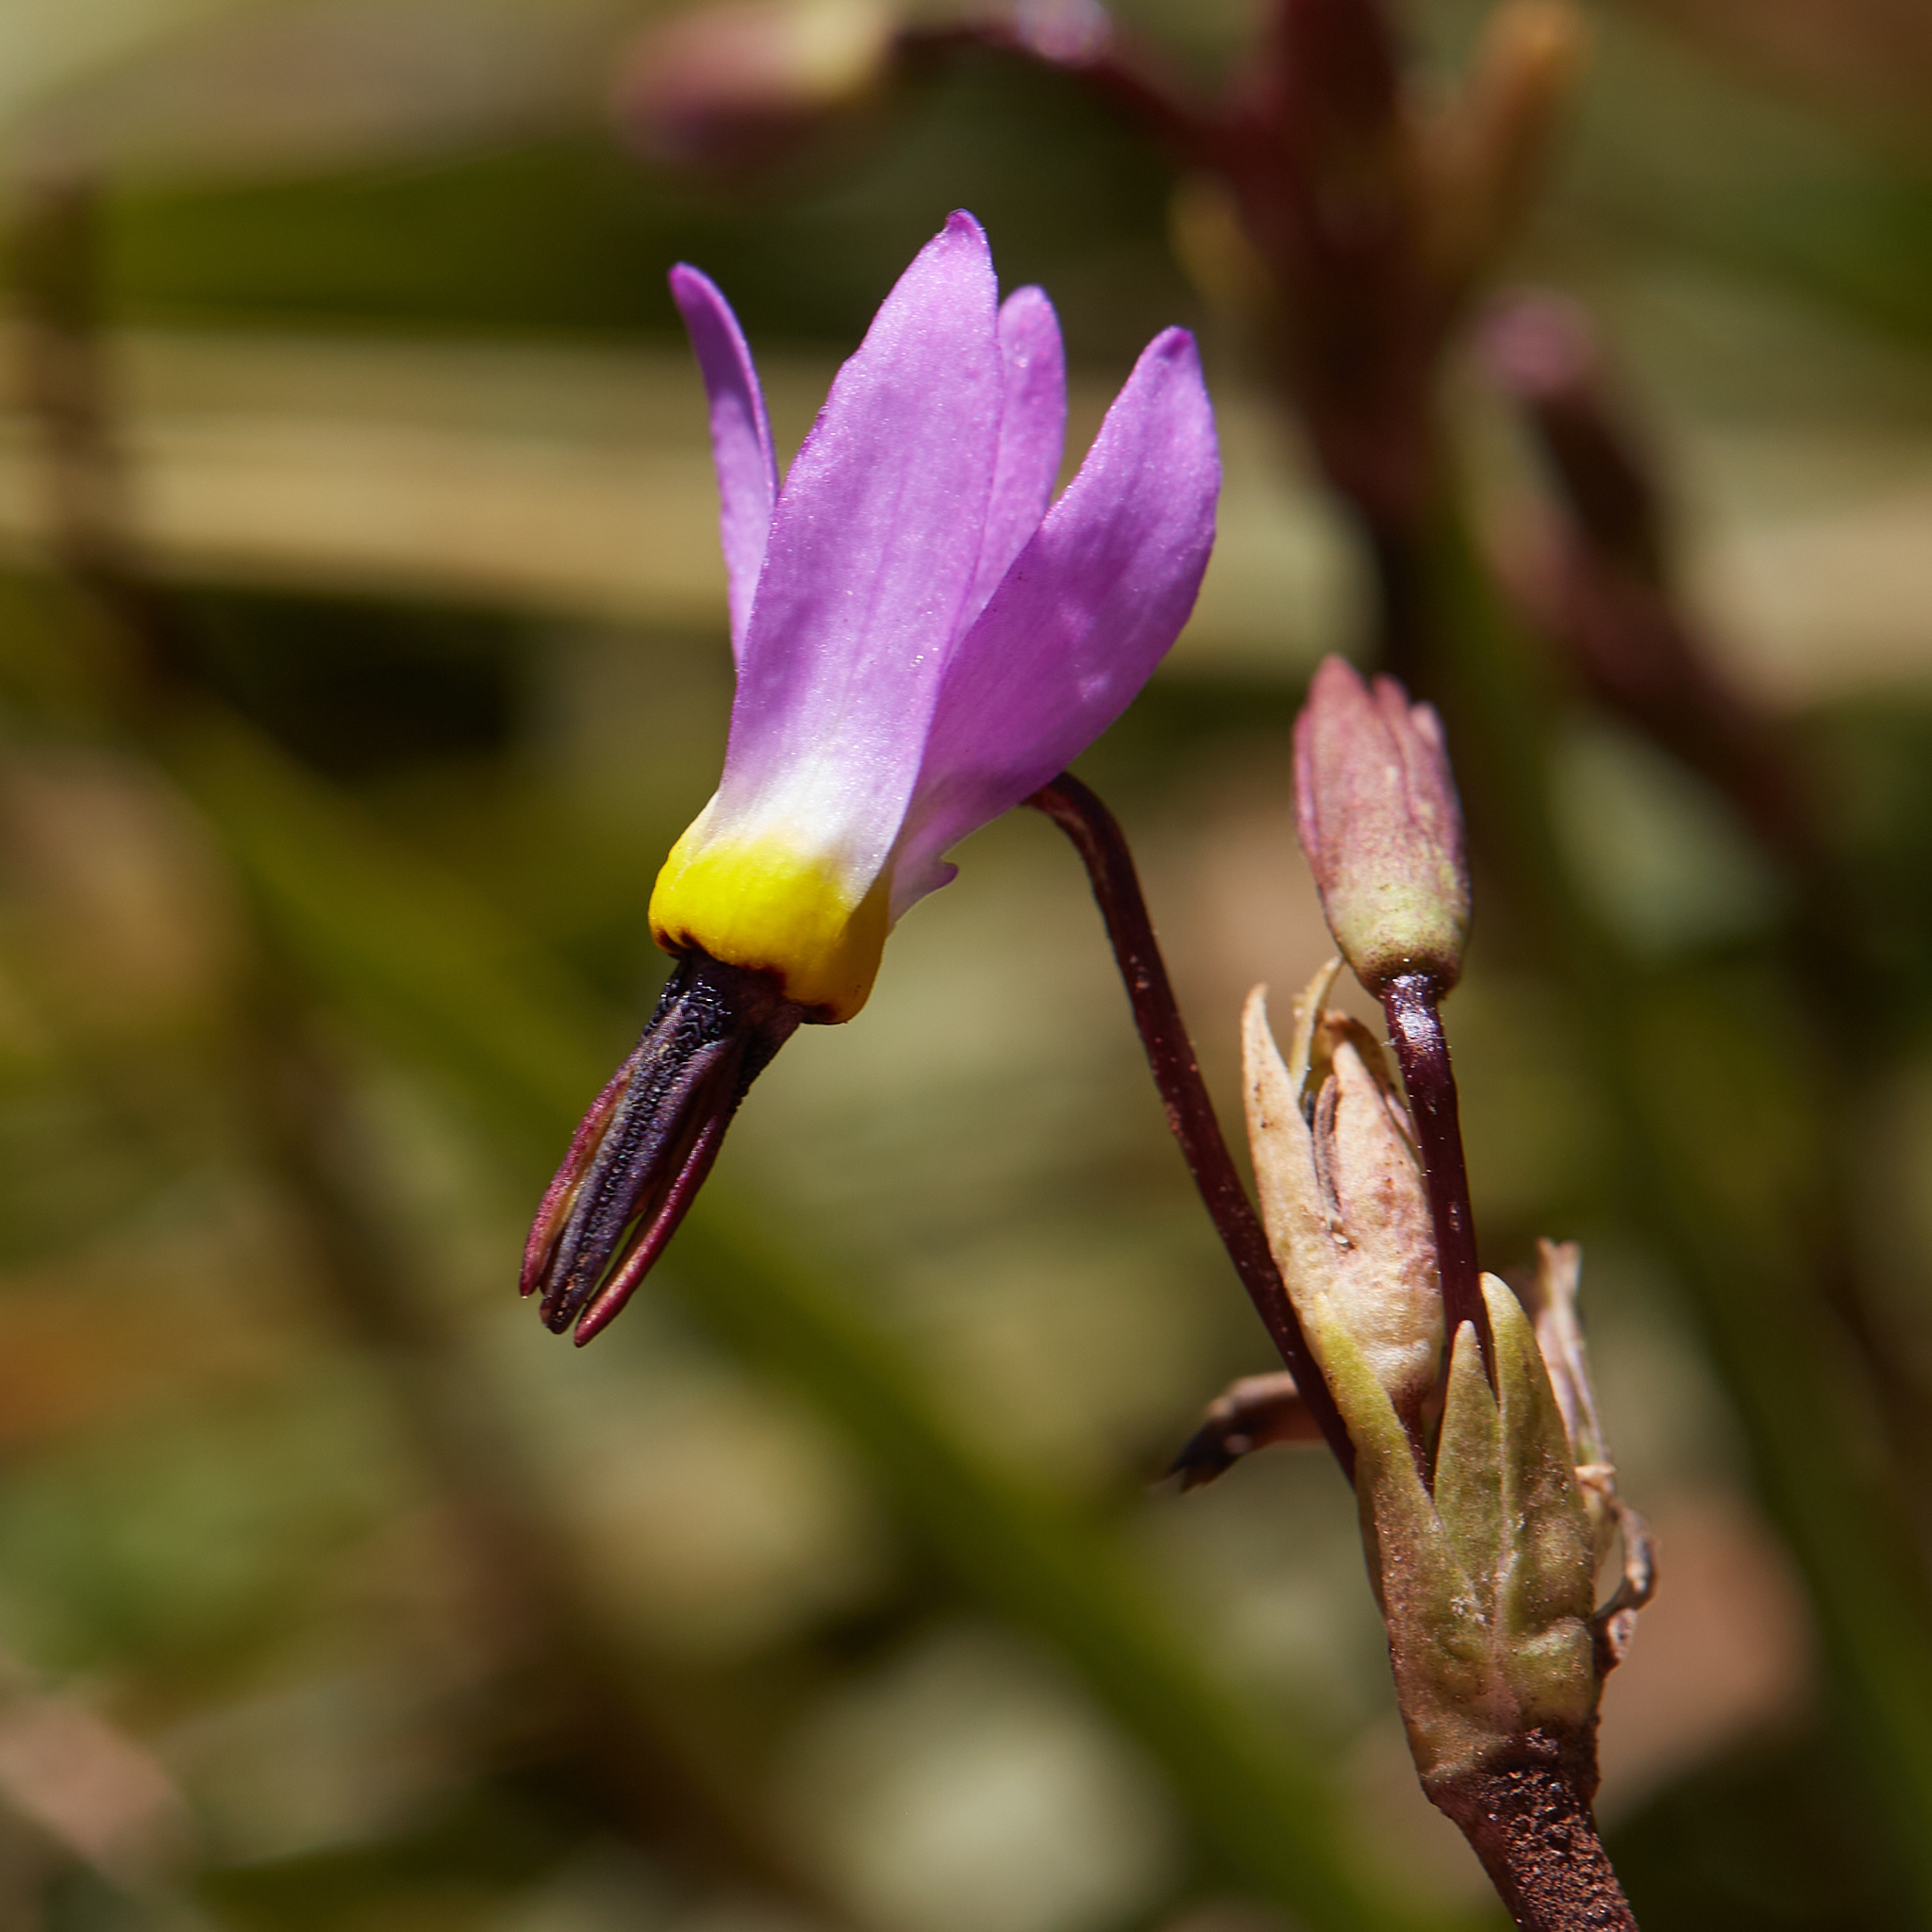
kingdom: Plantae
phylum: Tracheophyta
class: Magnoliopsida
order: Ericales
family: Primulaceae
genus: Dodecatheon
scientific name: Dodecatheon alpinum
